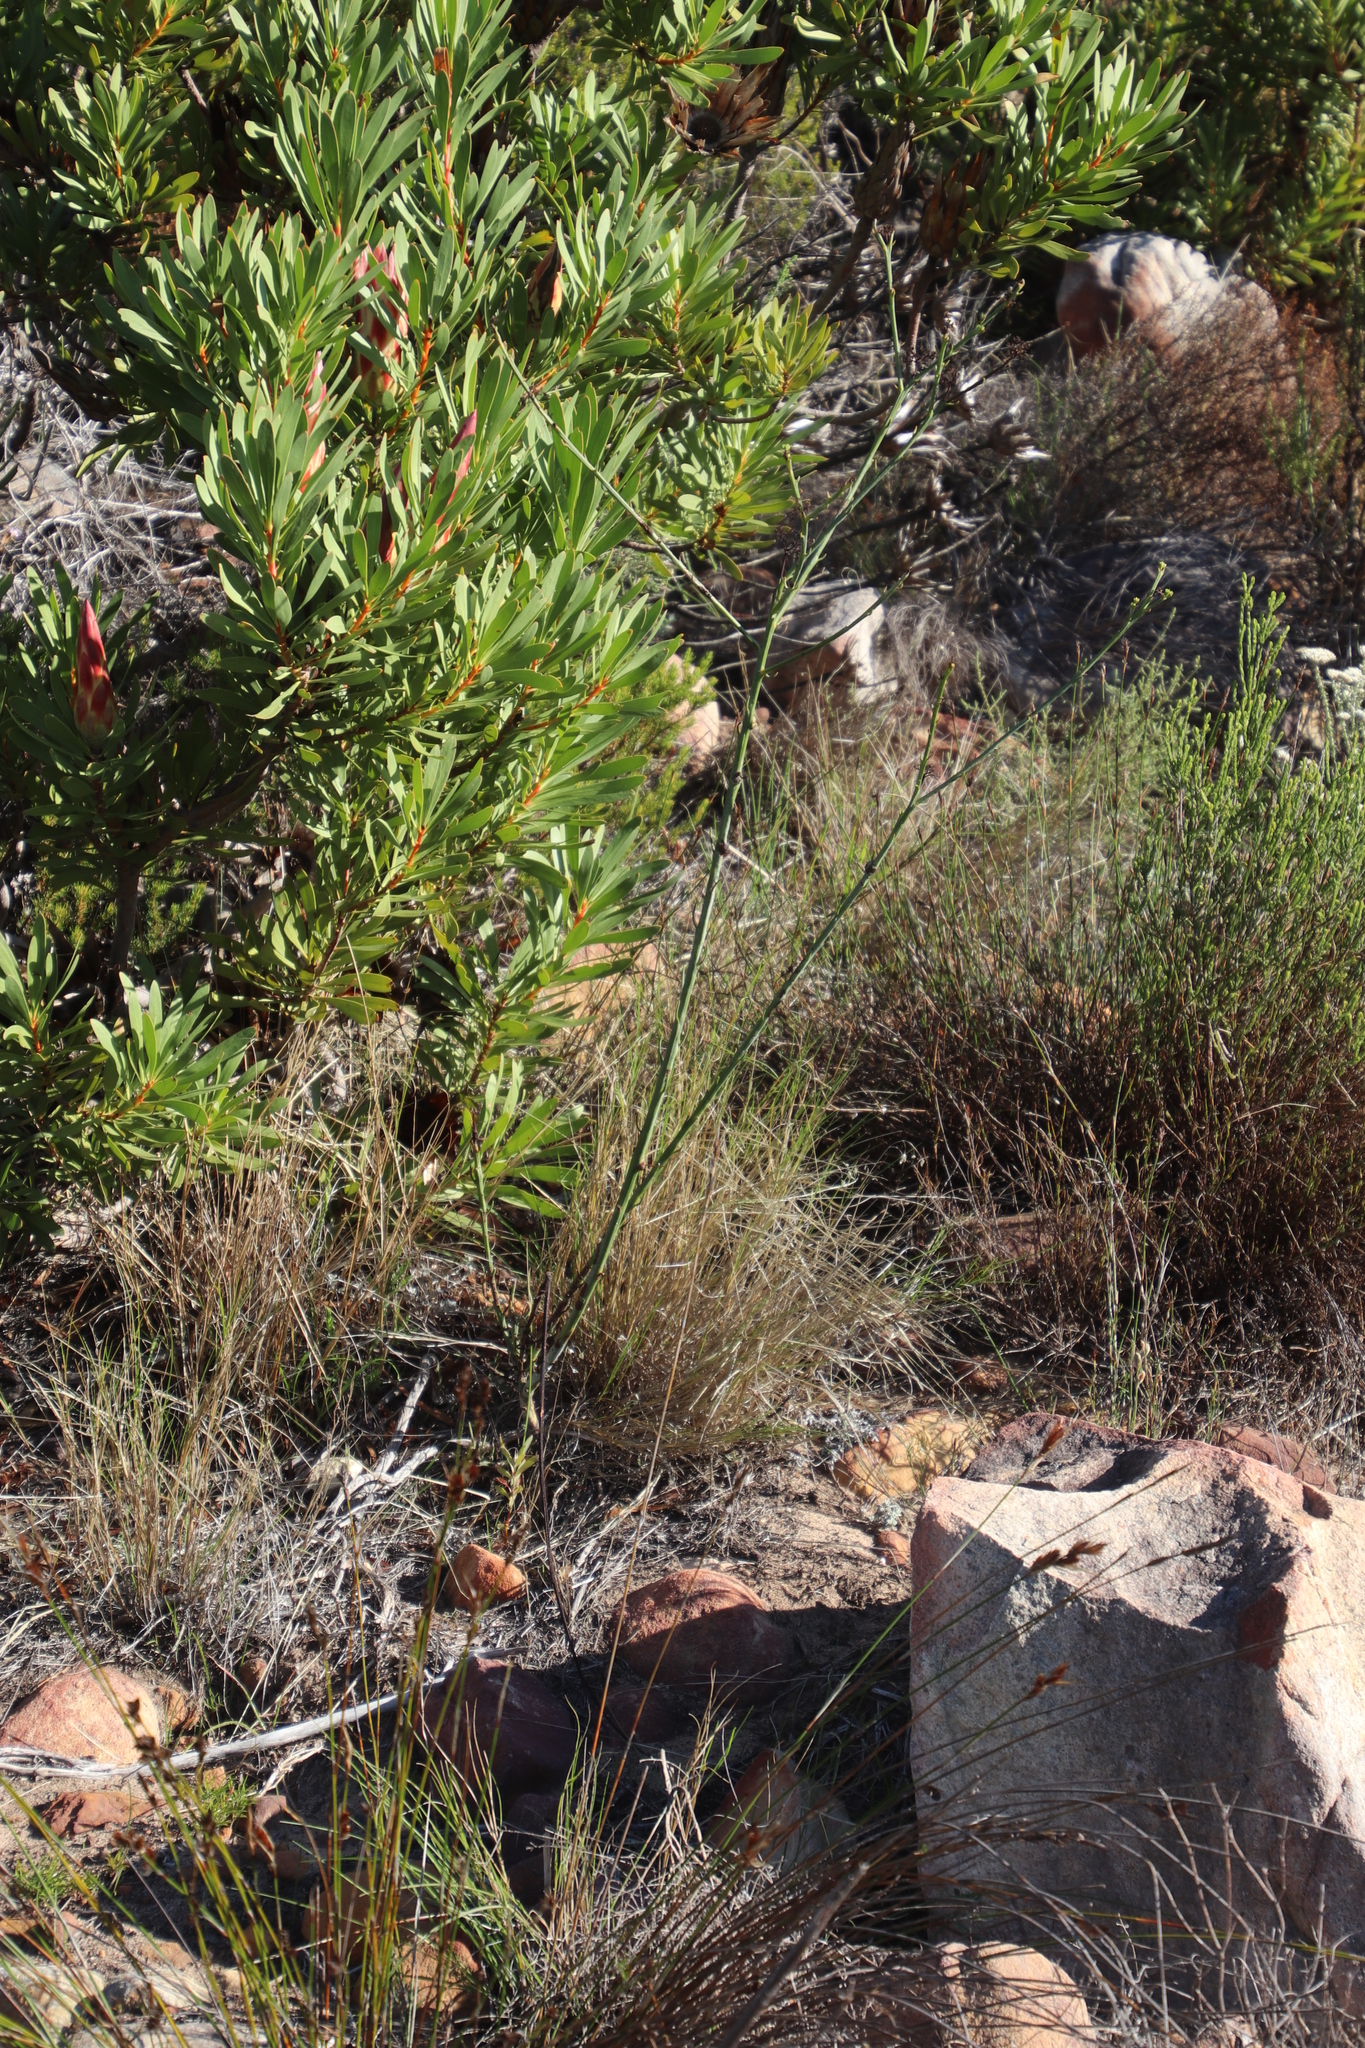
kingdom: Plantae
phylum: Tracheophyta
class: Magnoliopsida
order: Santalales
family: Thesiaceae
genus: Thesium
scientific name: Thesium strictum
